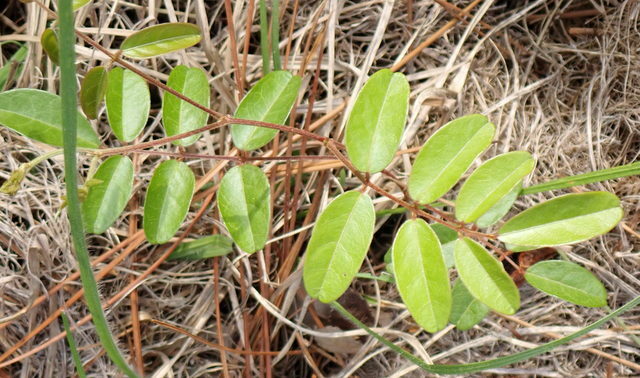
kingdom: Plantae
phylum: Tracheophyta
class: Magnoliopsida
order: Fabales
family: Fabaceae
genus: Galactia
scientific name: Galactia elliottii
